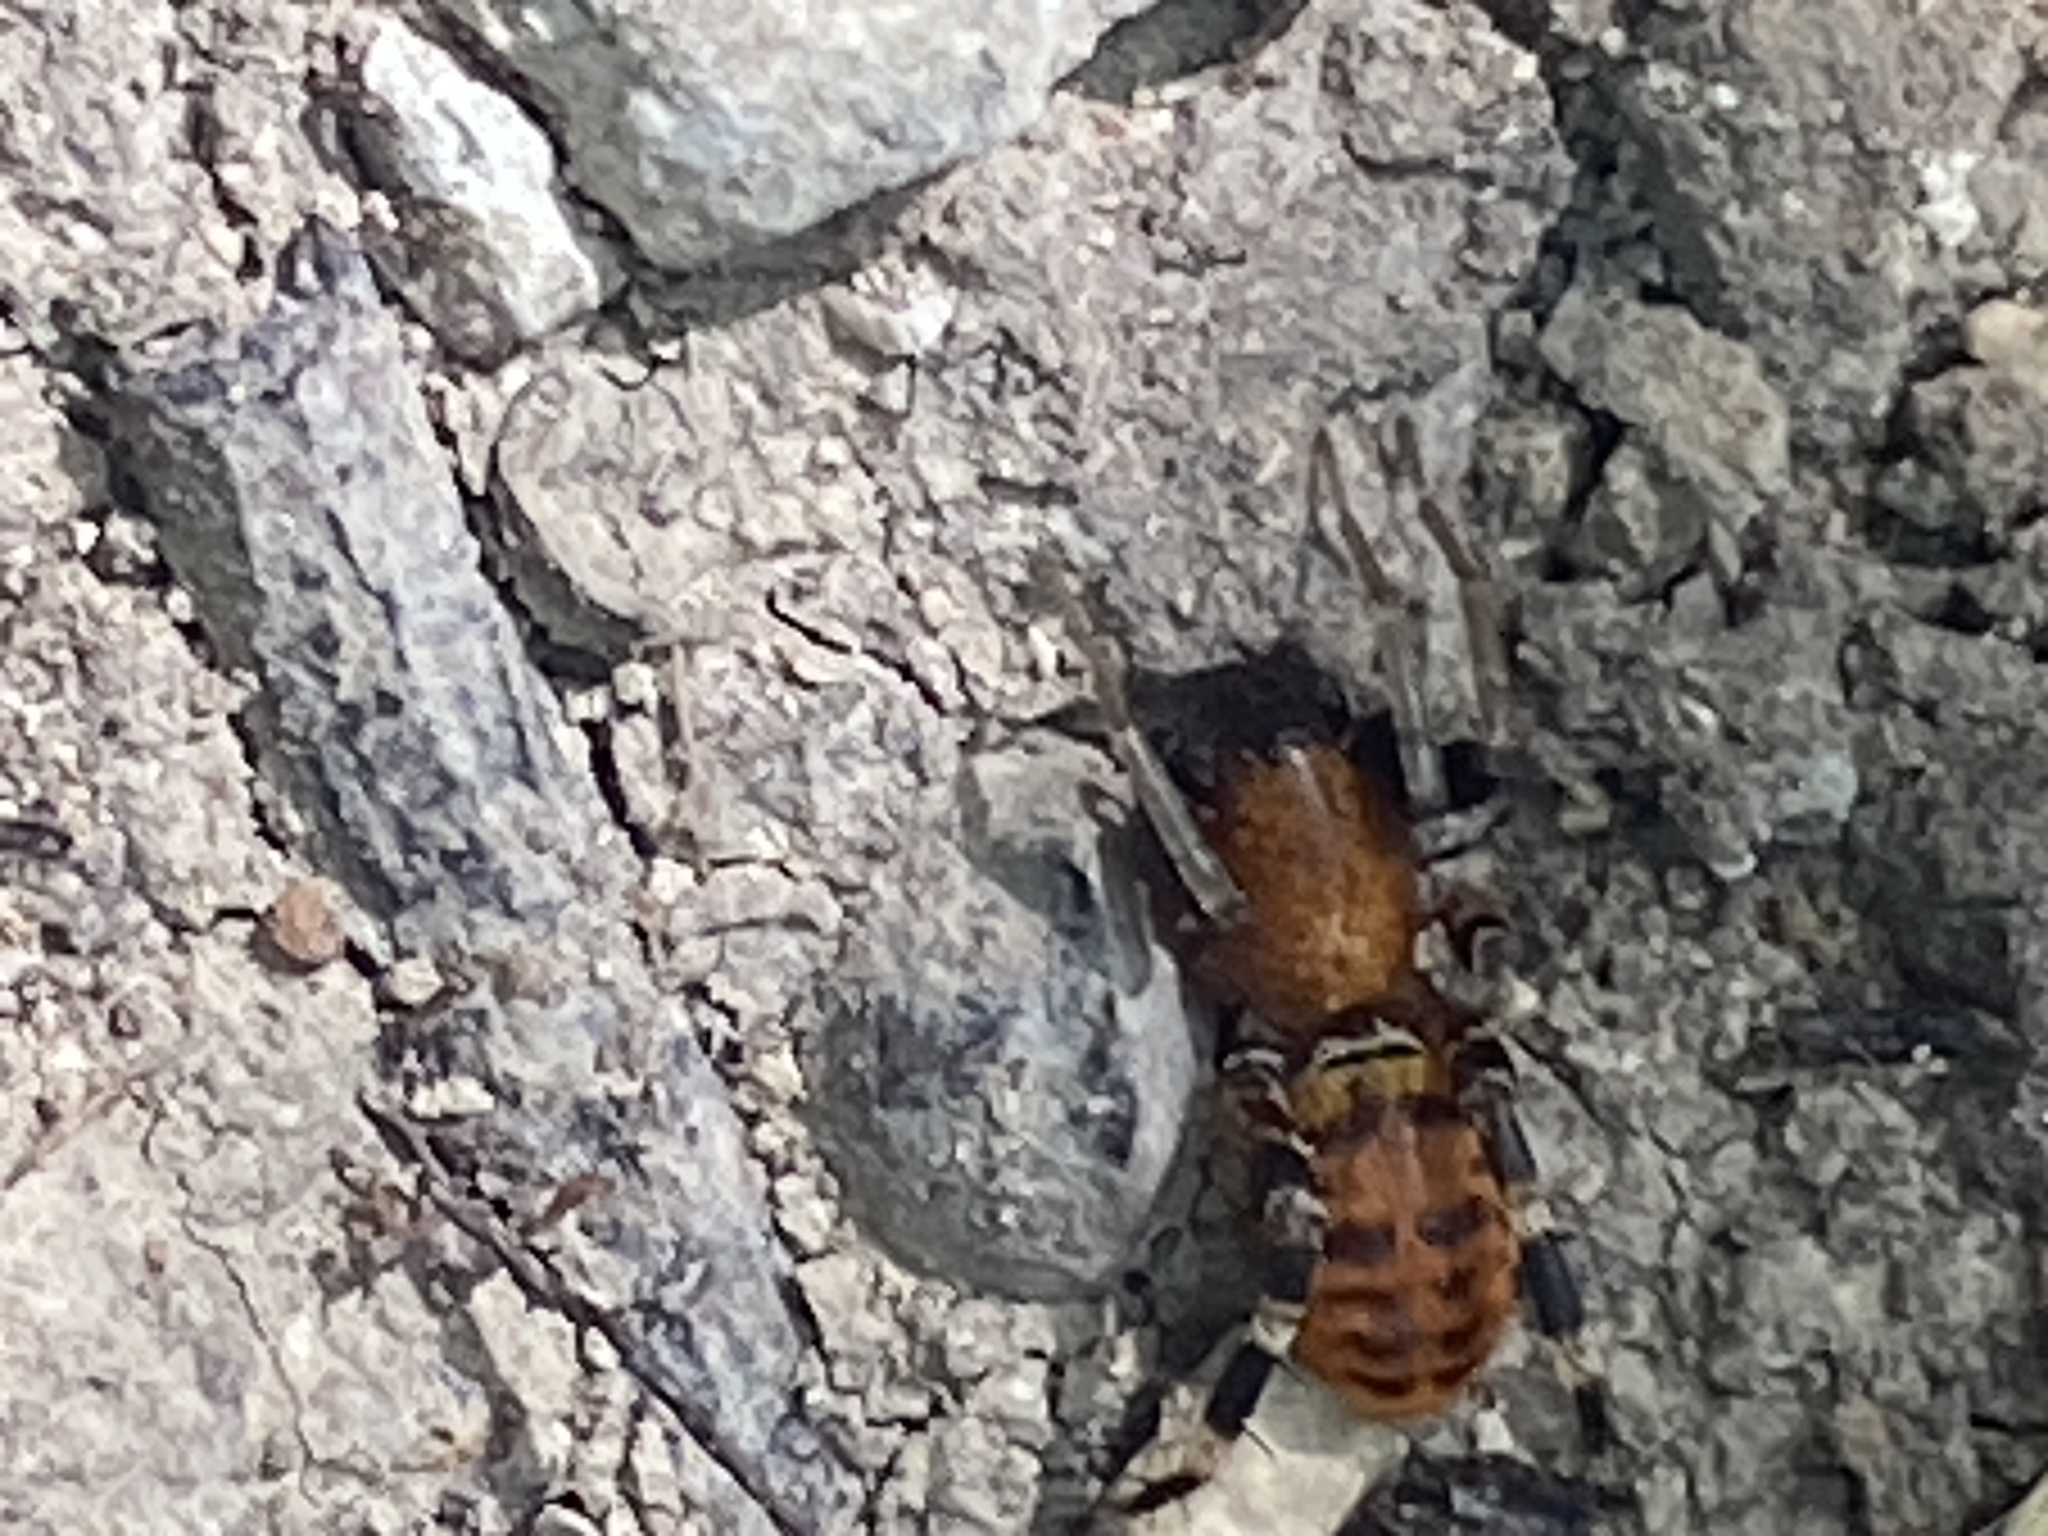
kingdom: Animalia
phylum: Arthropoda
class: Arachnida
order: Araneae
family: Corinnidae
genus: Castianeira
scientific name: Castianeira amoena
